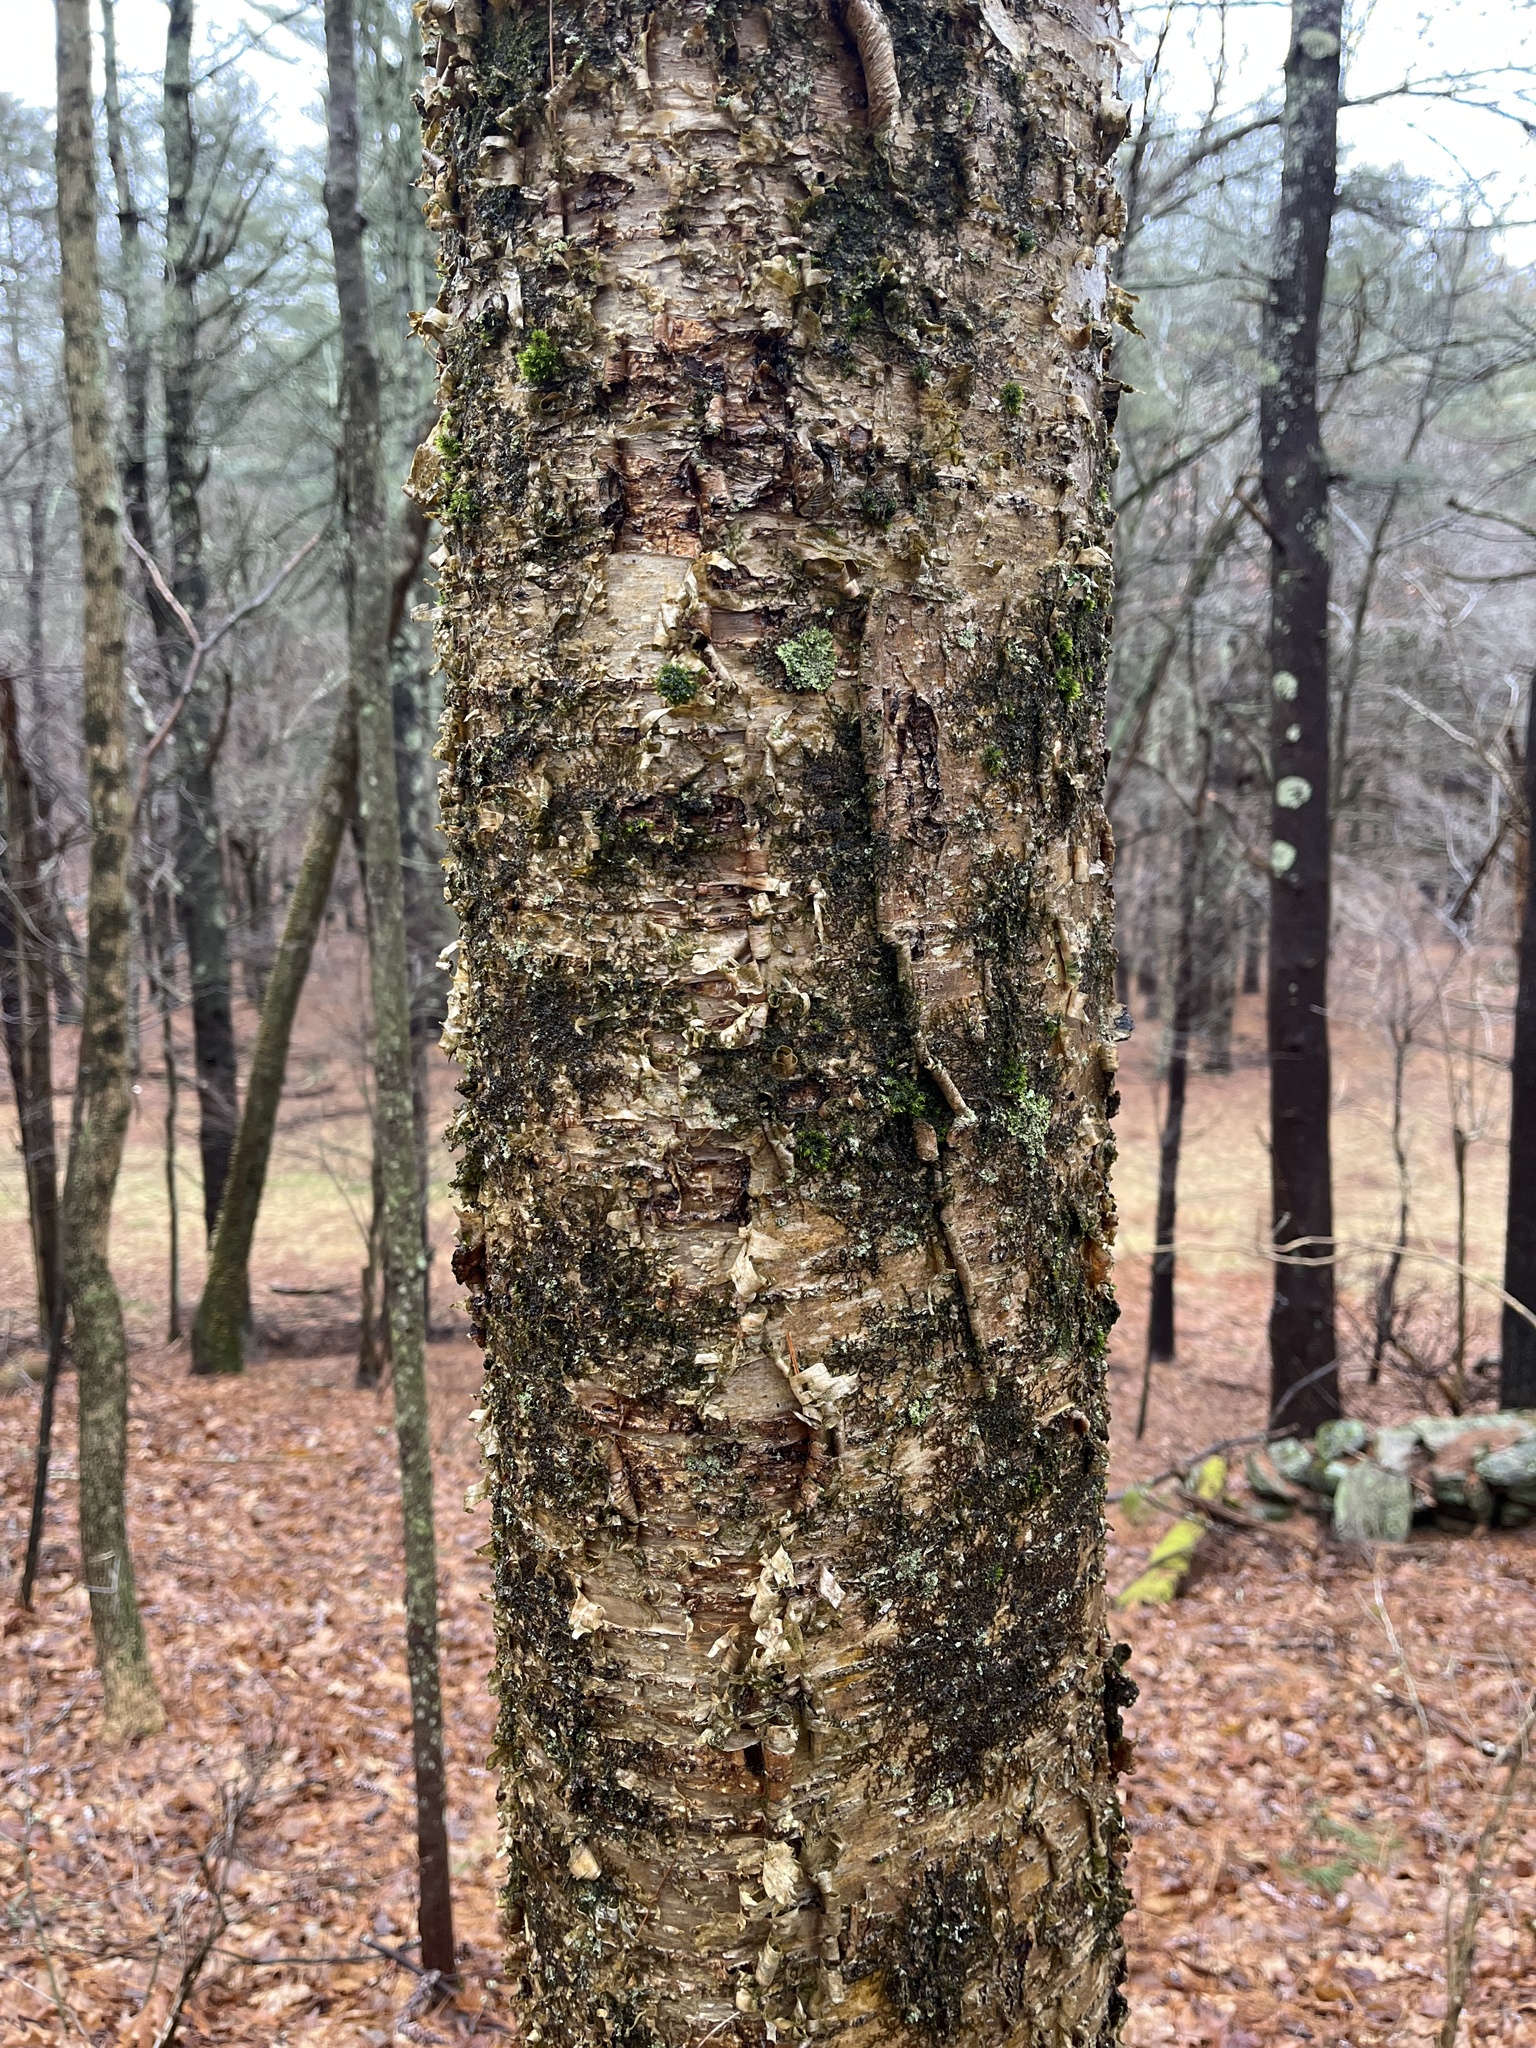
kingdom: Plantae
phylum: Tracheophyta
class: Magnoliopsida
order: Fagales
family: Betulaceae
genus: Betula
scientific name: Betula alleghaniensis
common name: Yellow birch
